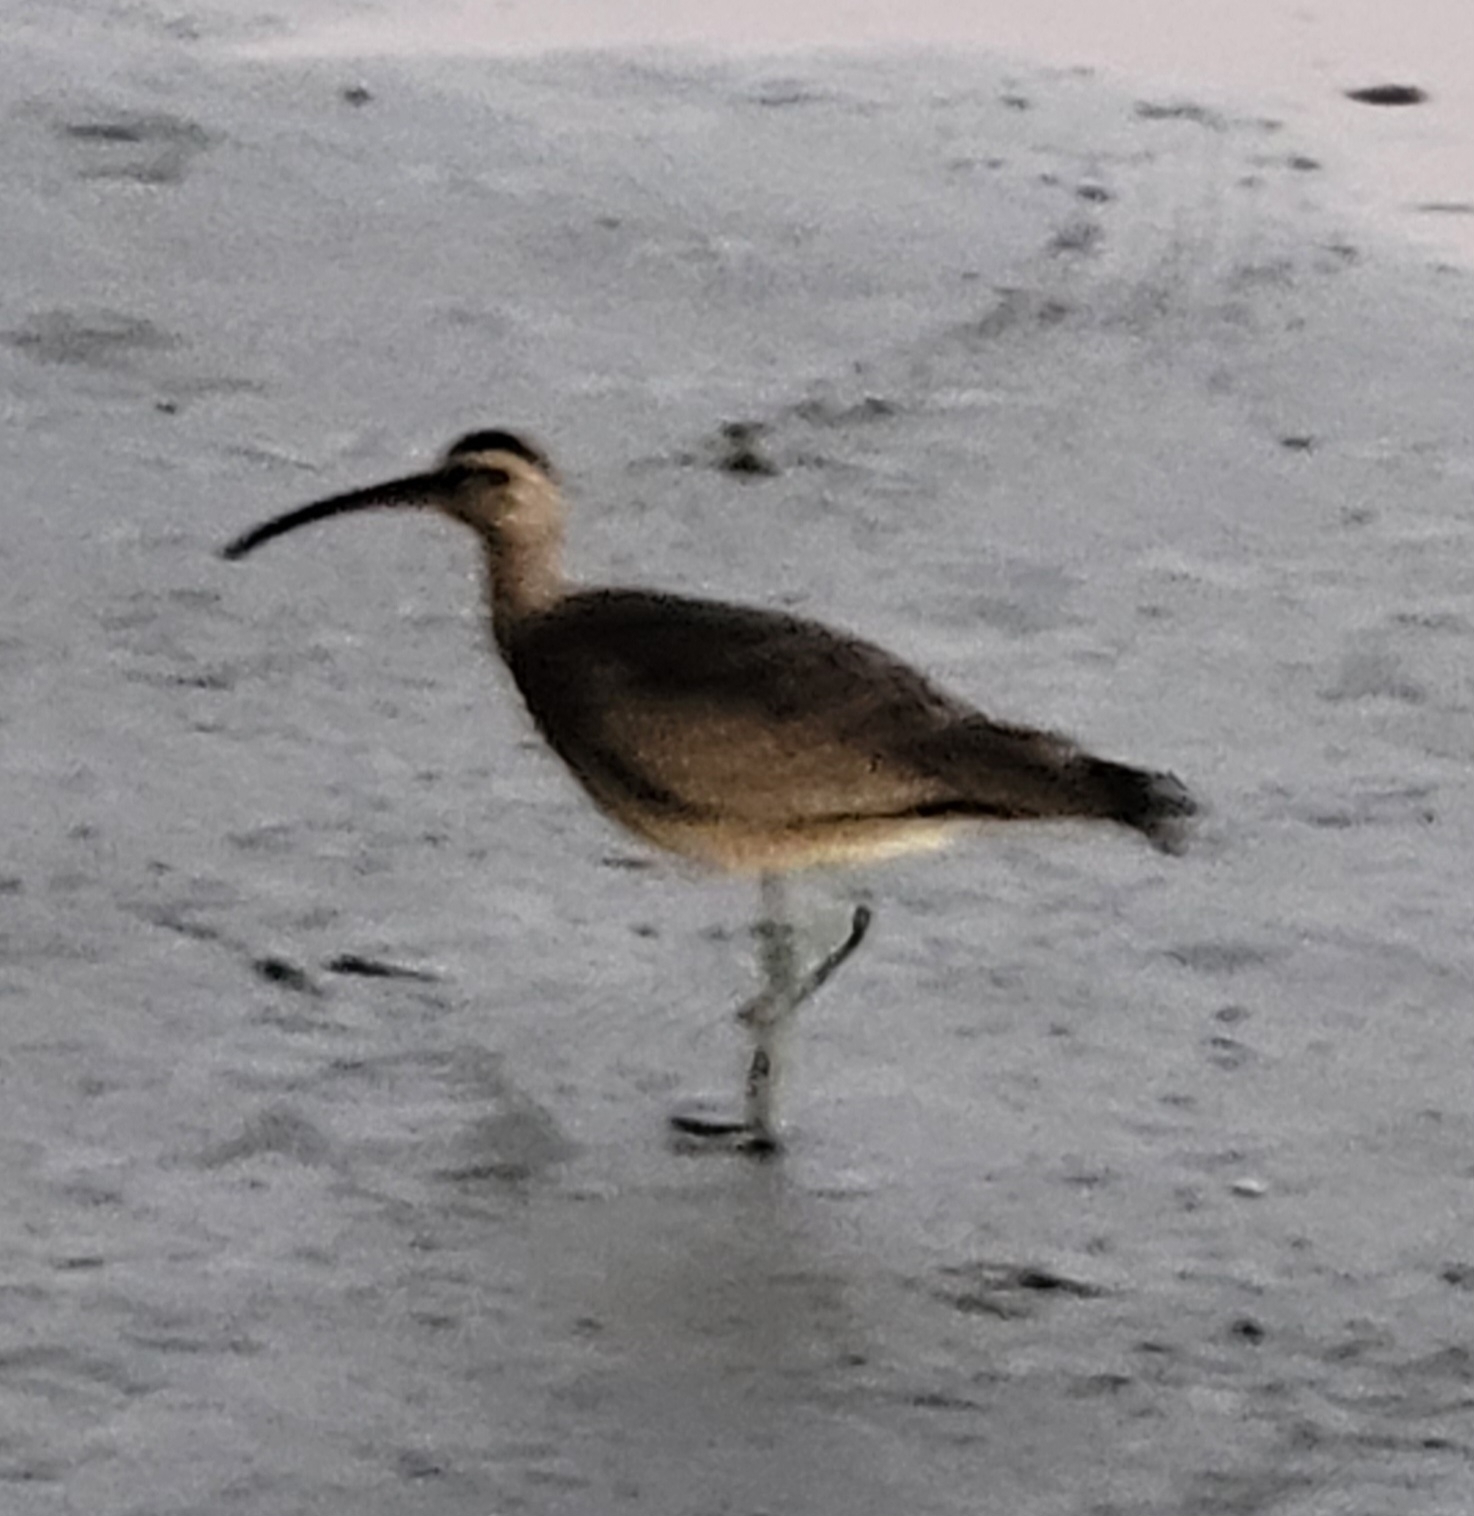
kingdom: Animalia
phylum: Chordata
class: Aves
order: Charadriiformes
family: Scolopacidae
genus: Numenius
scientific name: Numenius phaeopus
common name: Whimbrel
